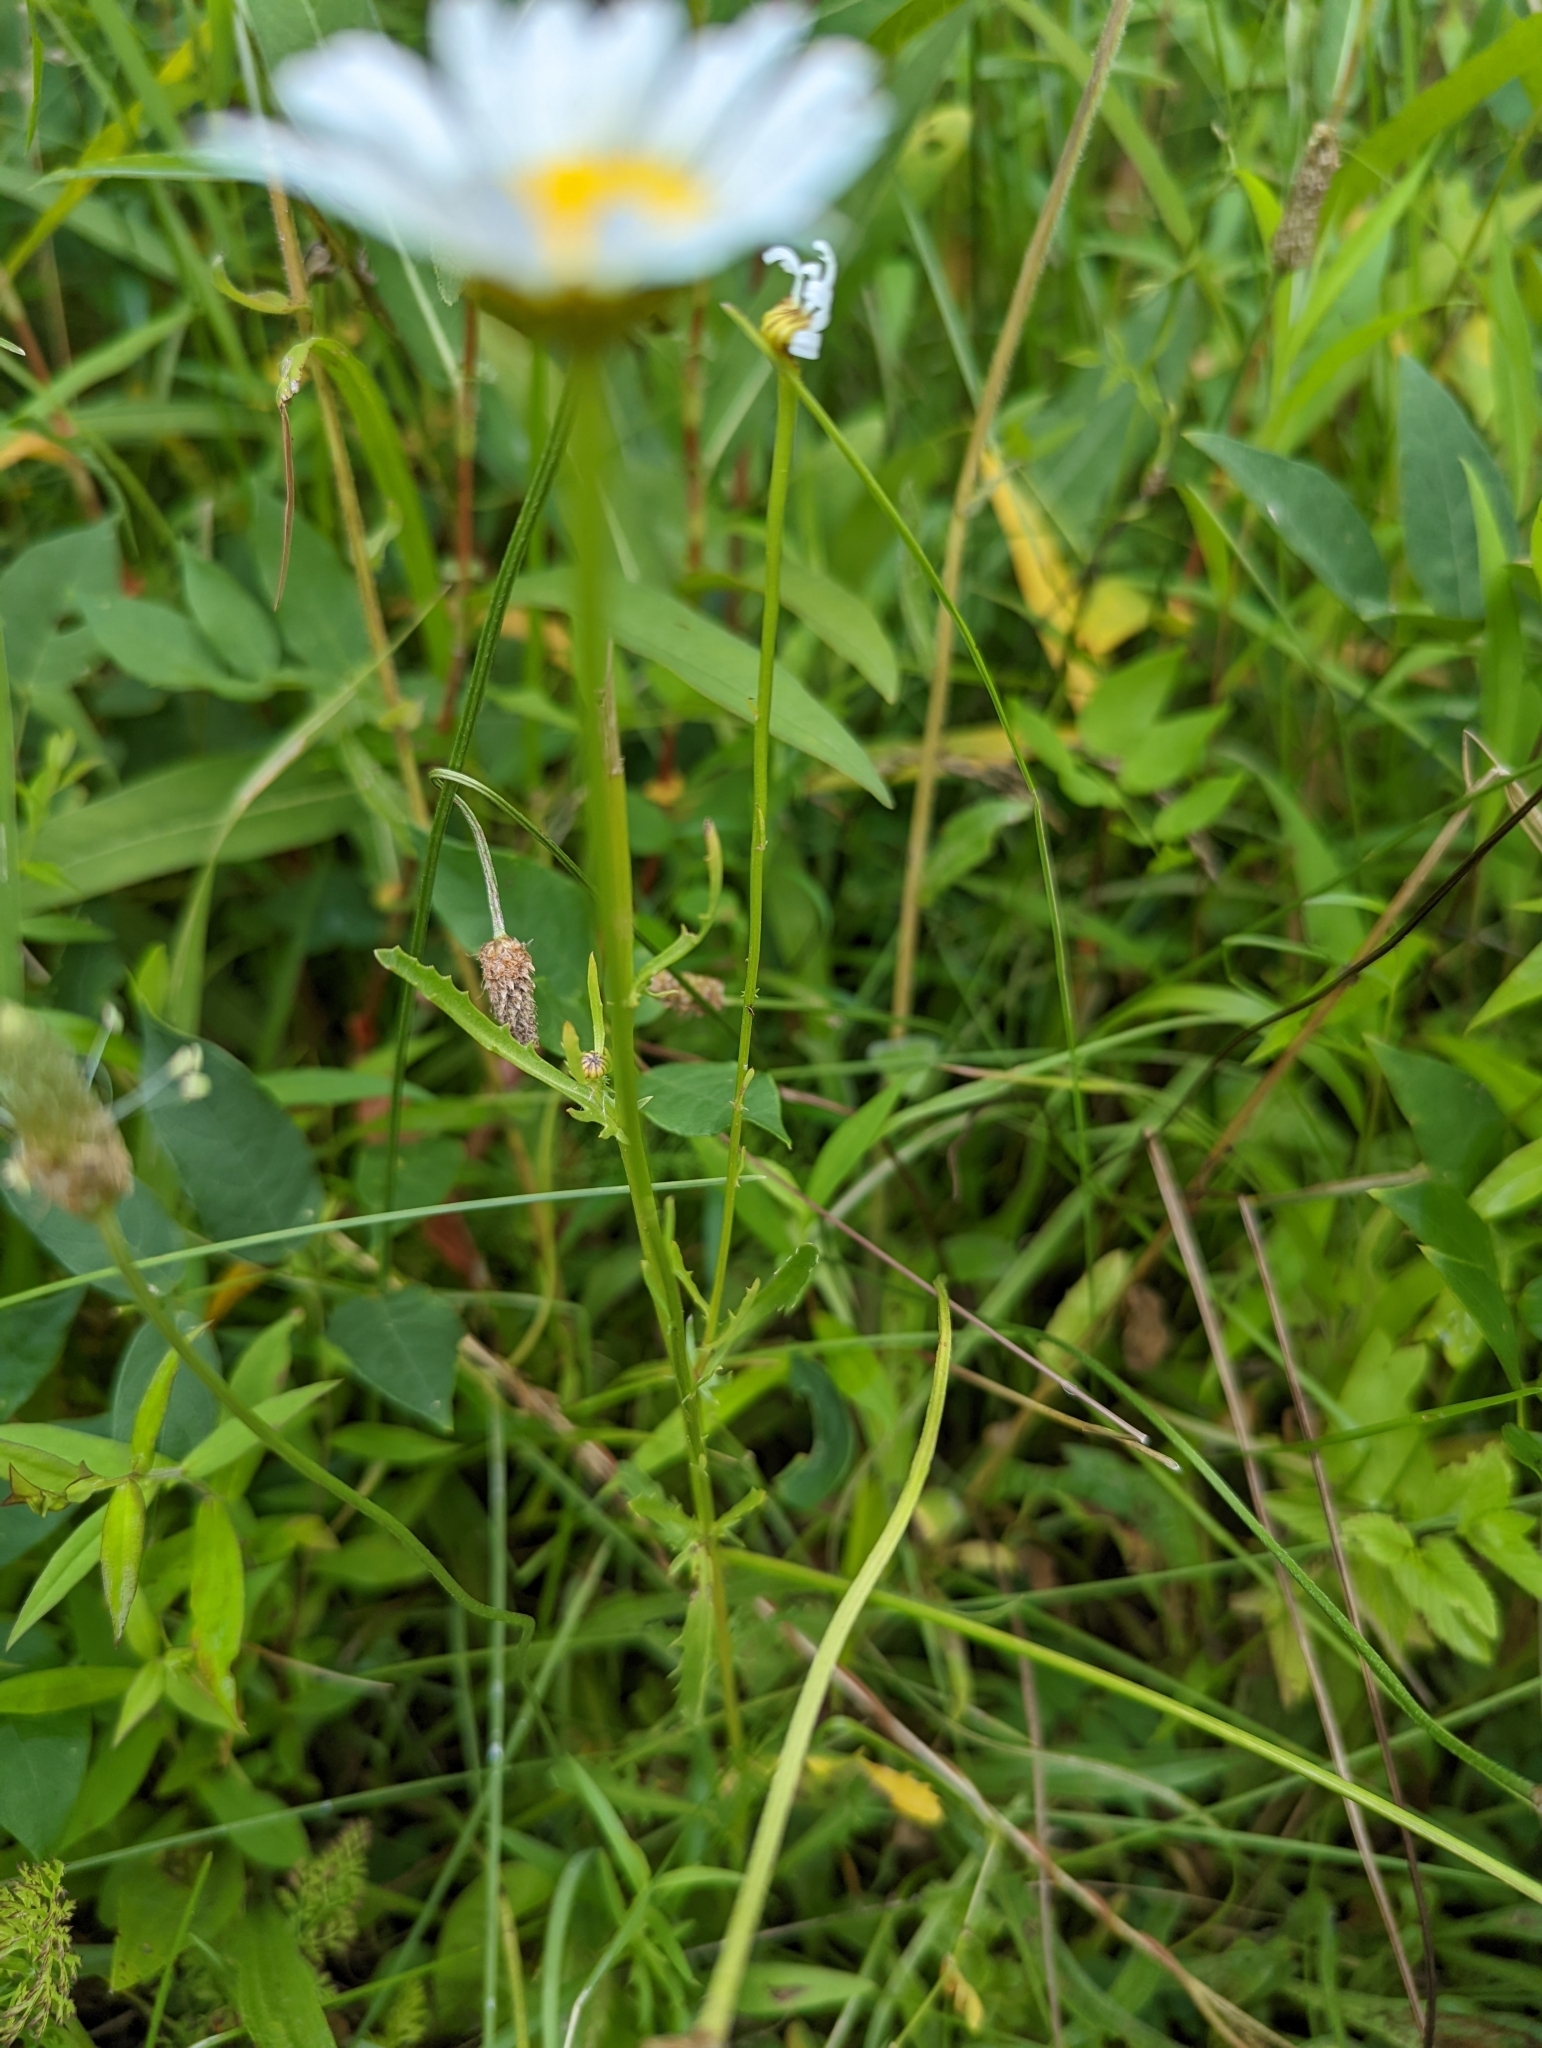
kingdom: Plantae
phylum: Tracheophyta
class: Magnoliopsida
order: Asterales
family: Asteraceae
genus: Leucanthemum
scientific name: Leucanthemum vulgare
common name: Oxeye daisy
